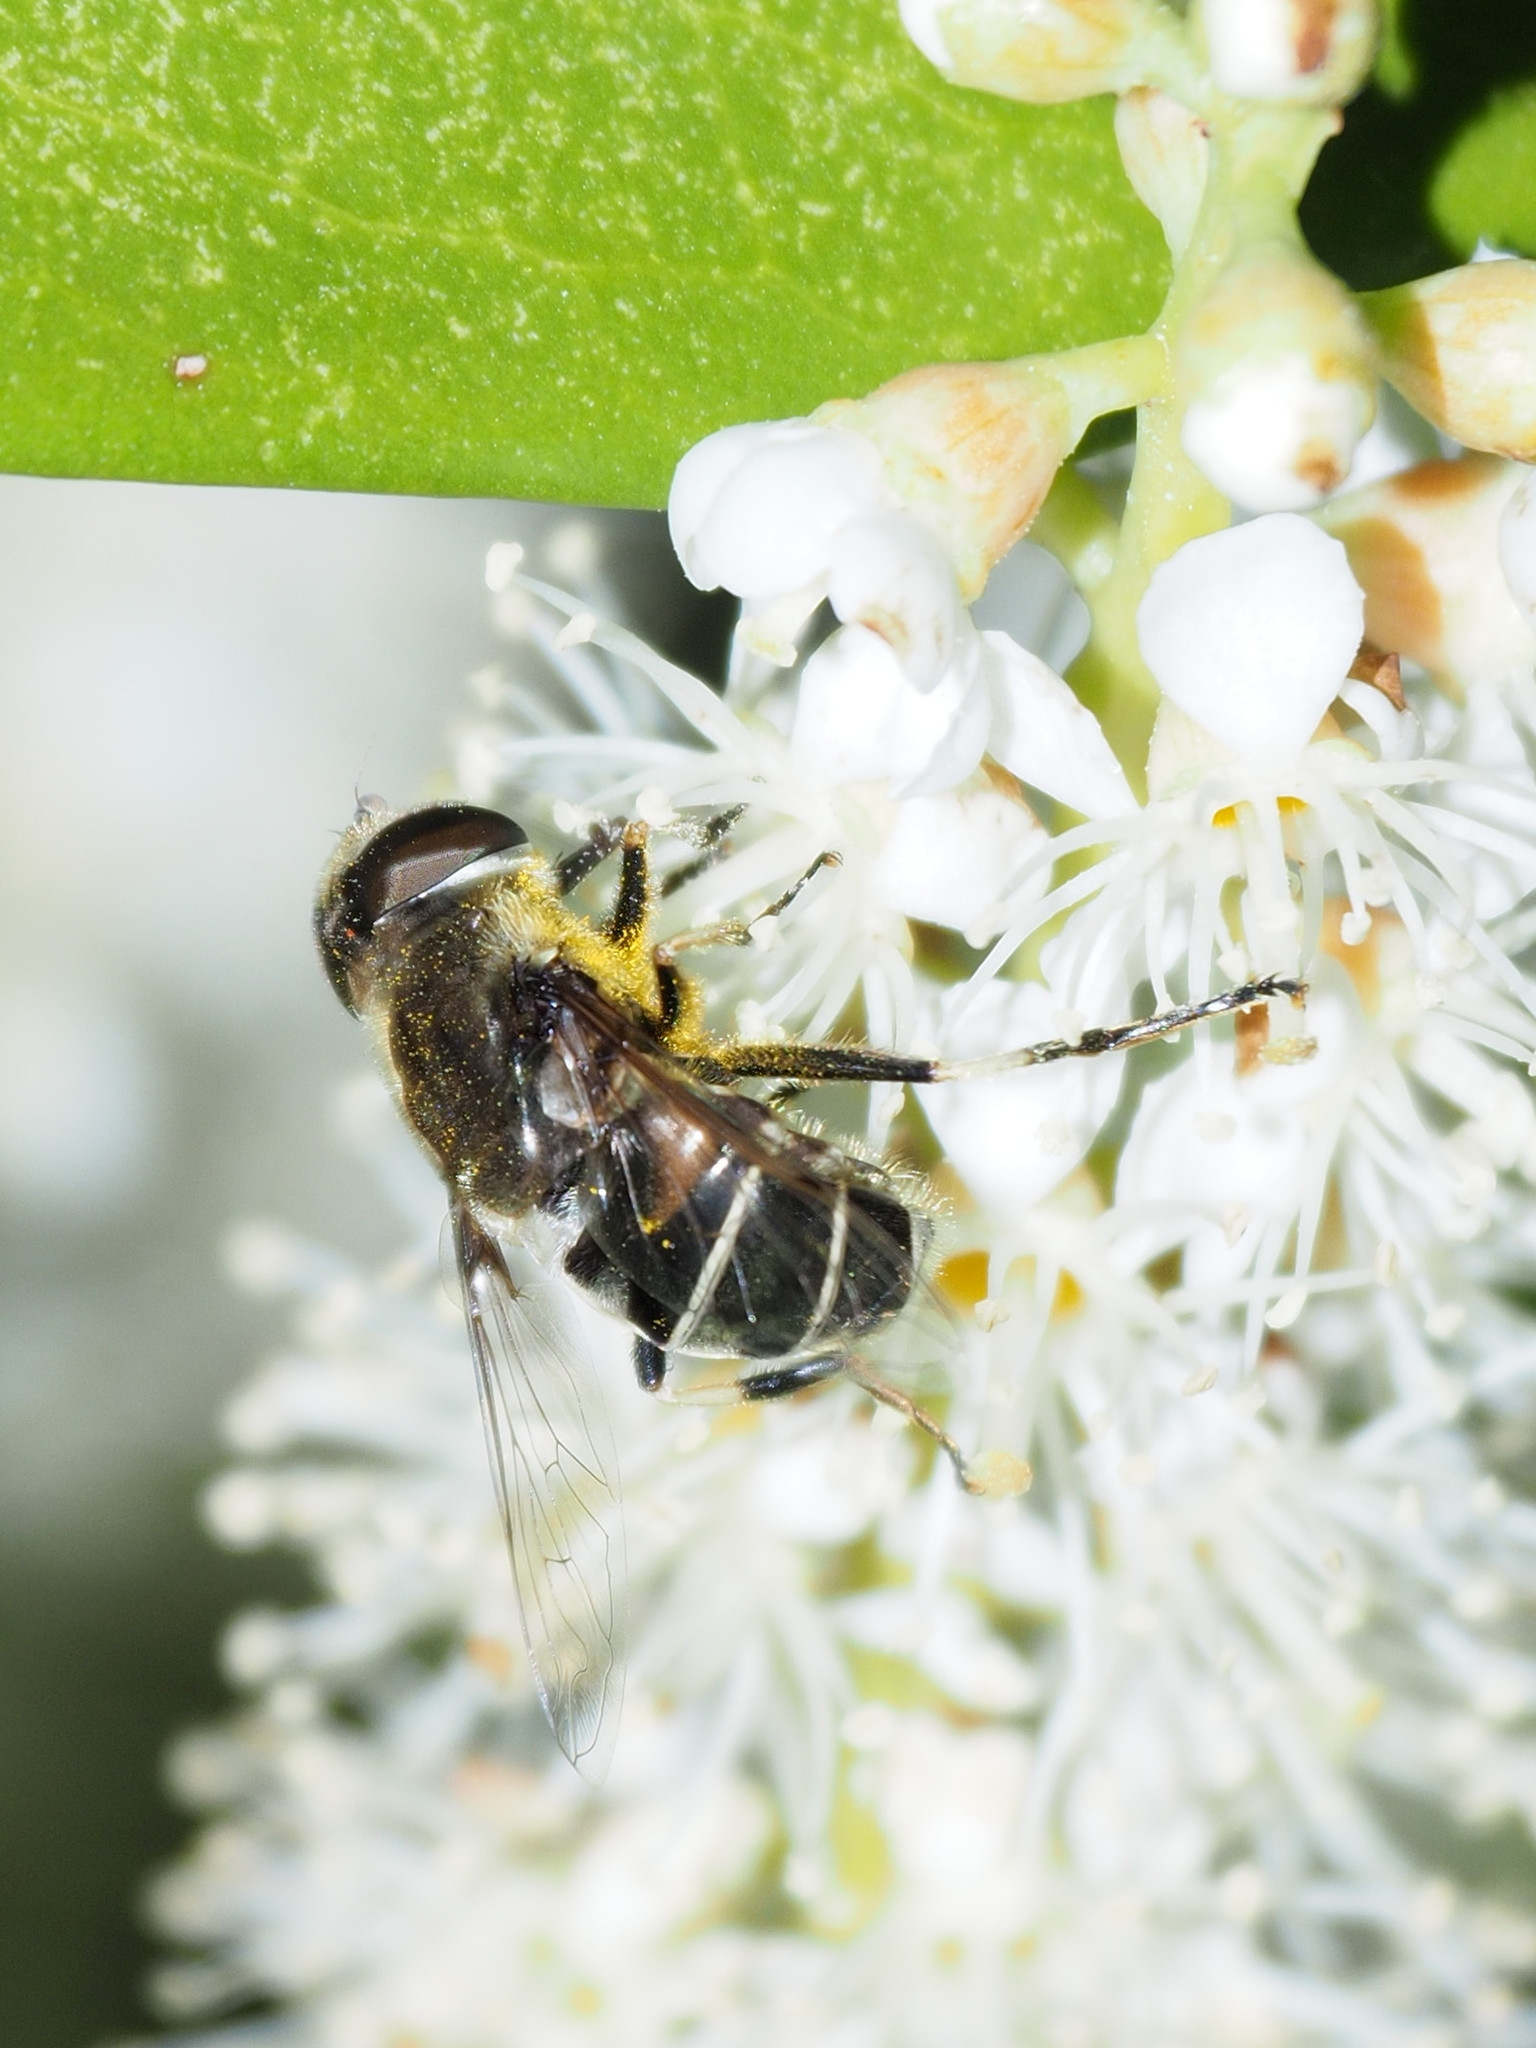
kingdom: Animalia
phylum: Arthropoda
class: Insecta
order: Diptera
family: Syrphidae
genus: Eristalis
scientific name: Eristalis dimidiata
